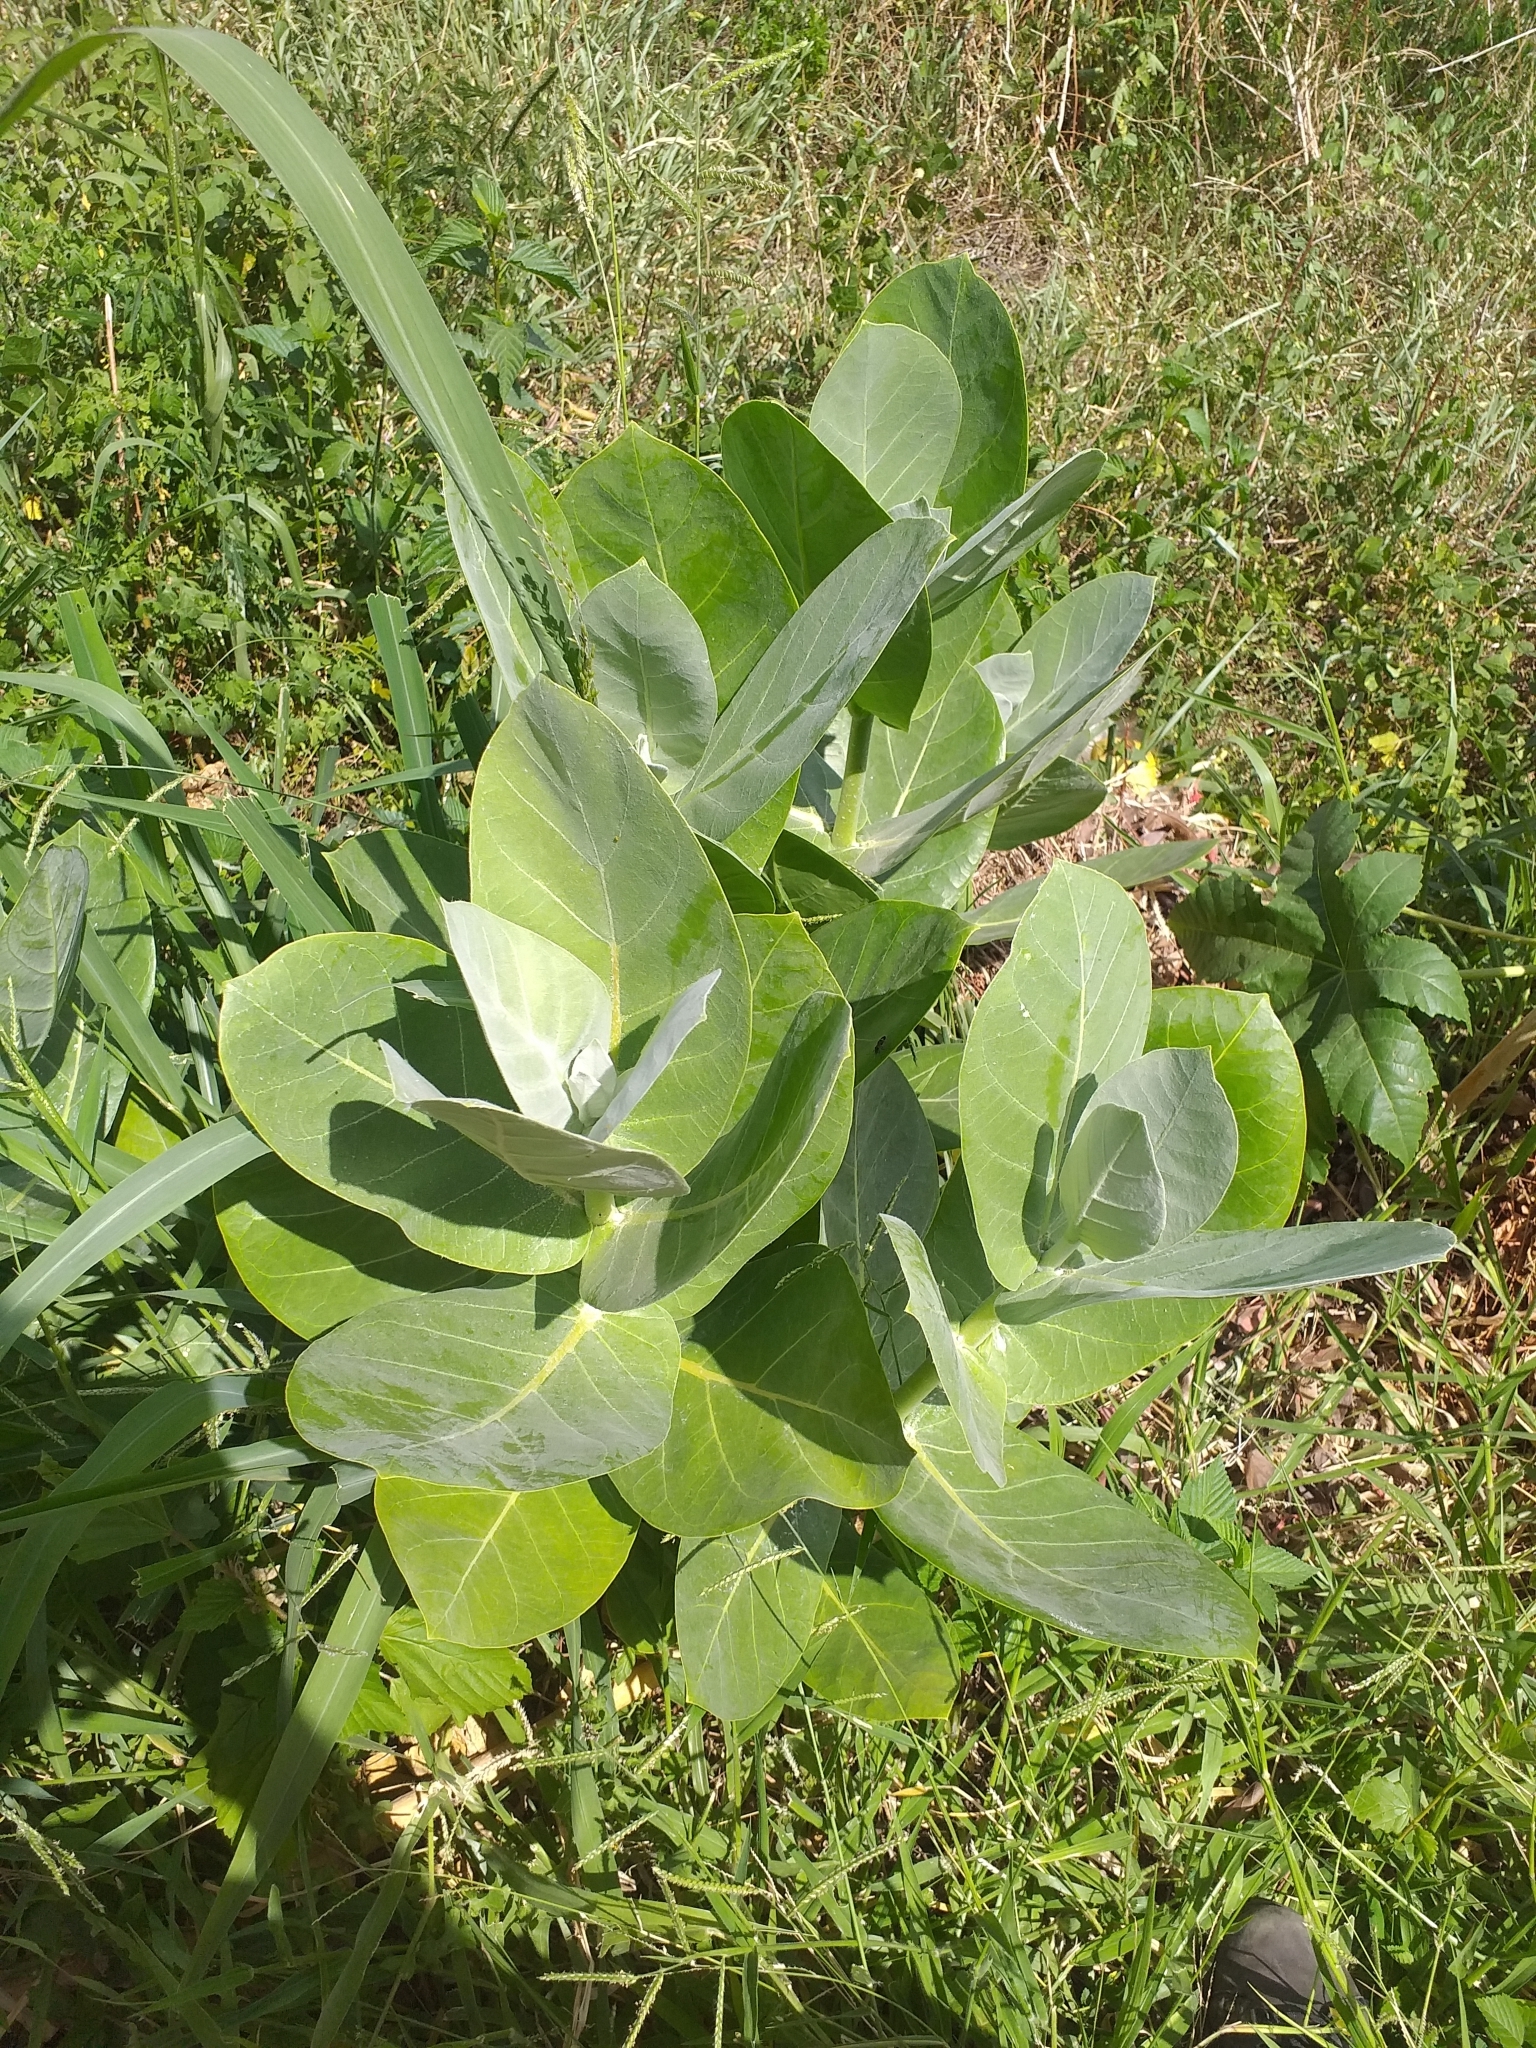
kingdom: Plantae
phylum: Tracheophyta
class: Magnoliopsida
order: Gentianales
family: Apocynaceae
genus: Calotropis
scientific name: Calotropis procera
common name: Roostertree
